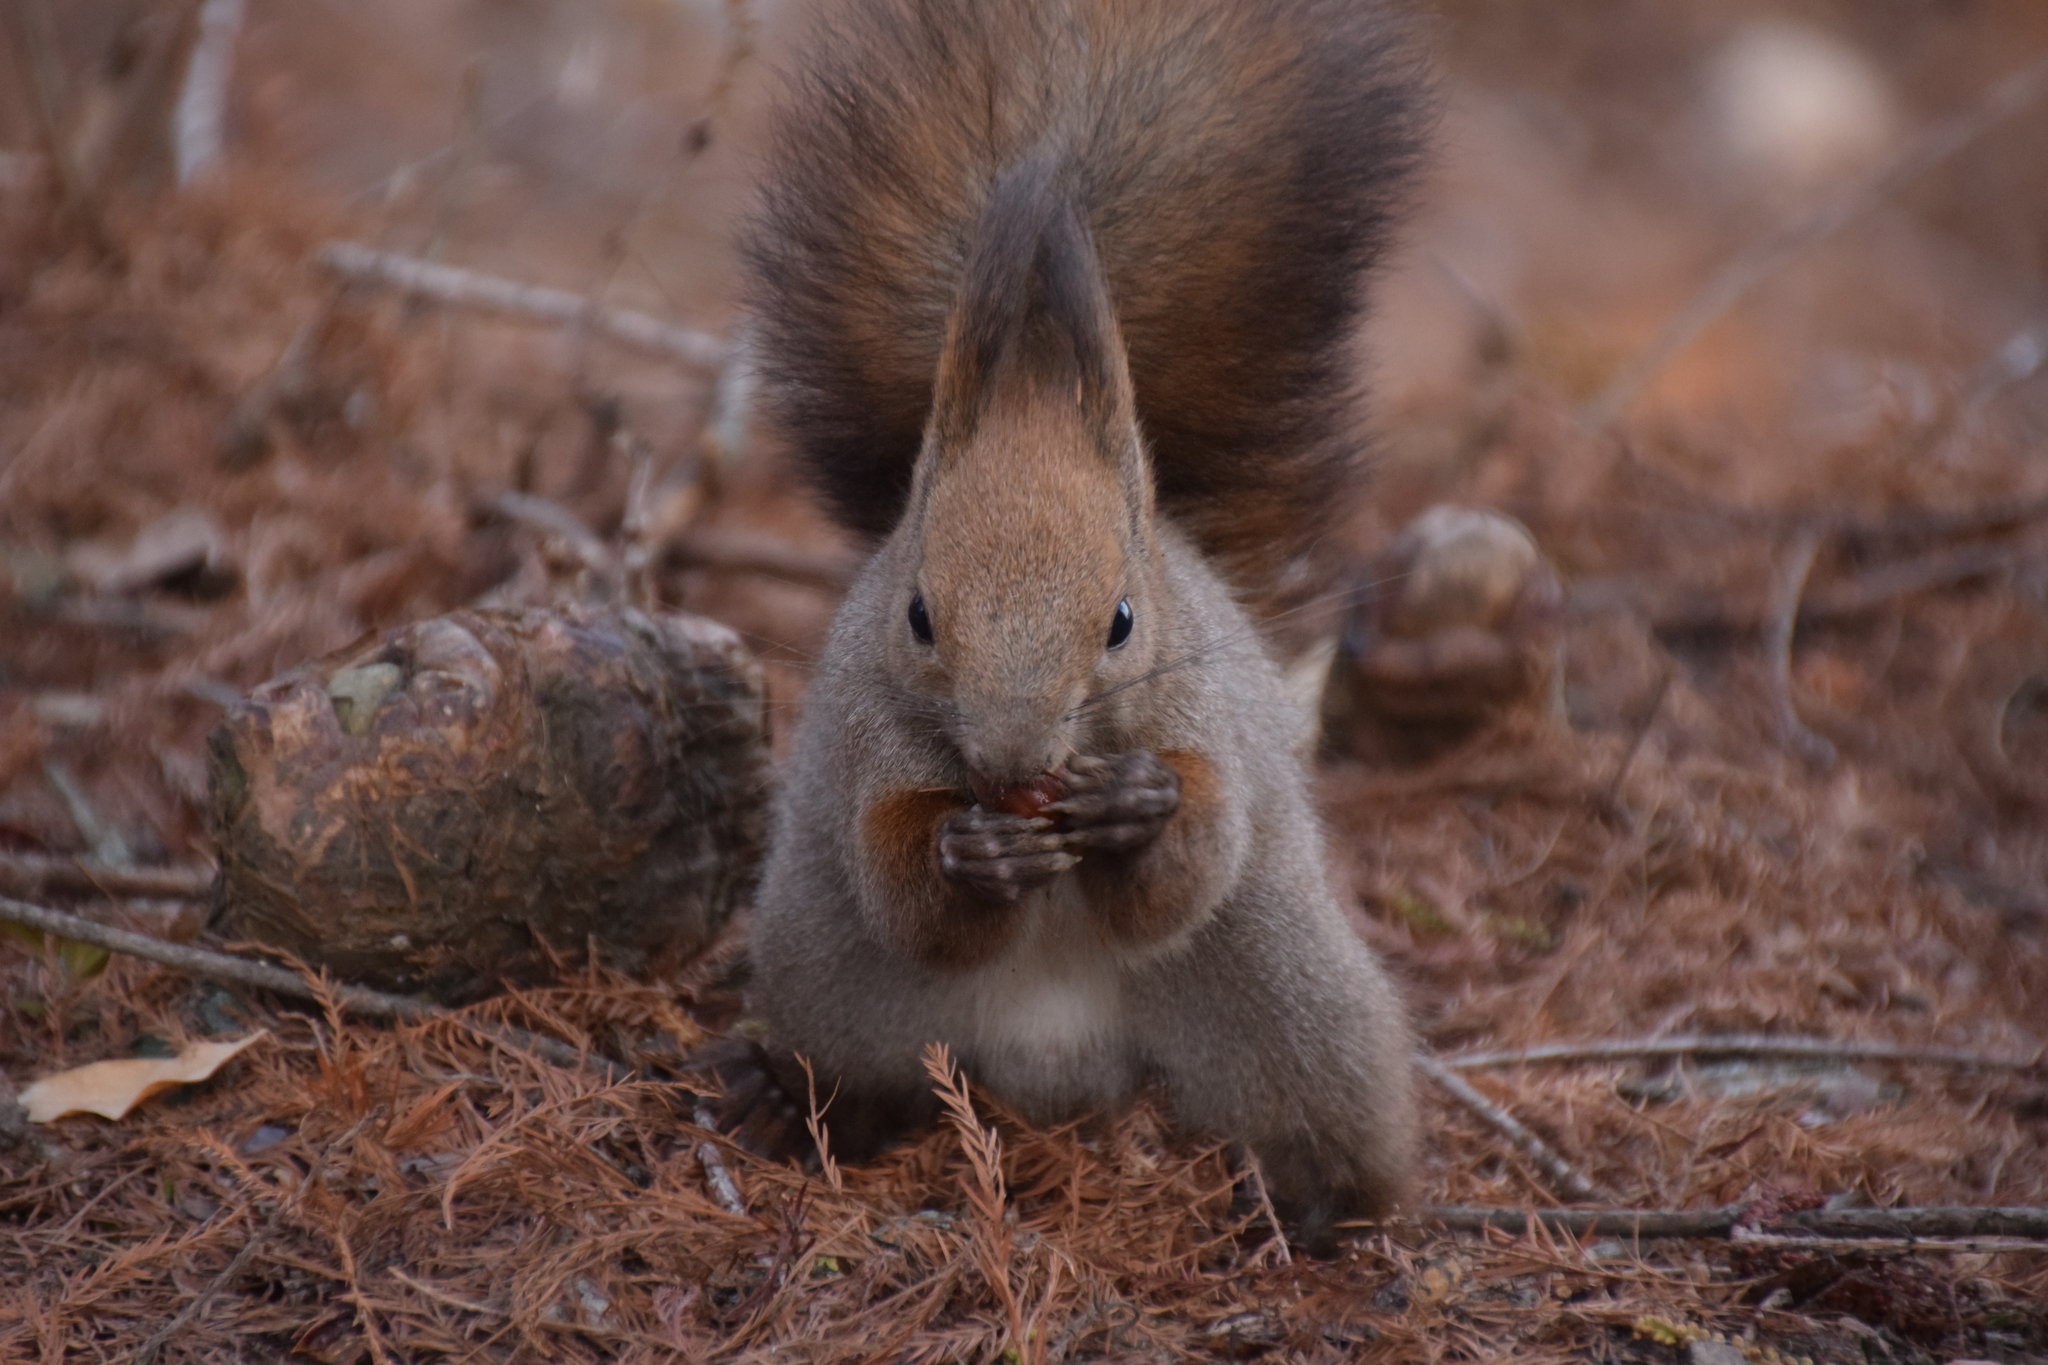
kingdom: Animalia
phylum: Chordata
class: Mammalia
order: Rodentia
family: Sciuridae
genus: Sciurus
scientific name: Sciurus vulgaris
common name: Eurasian red squirrel
